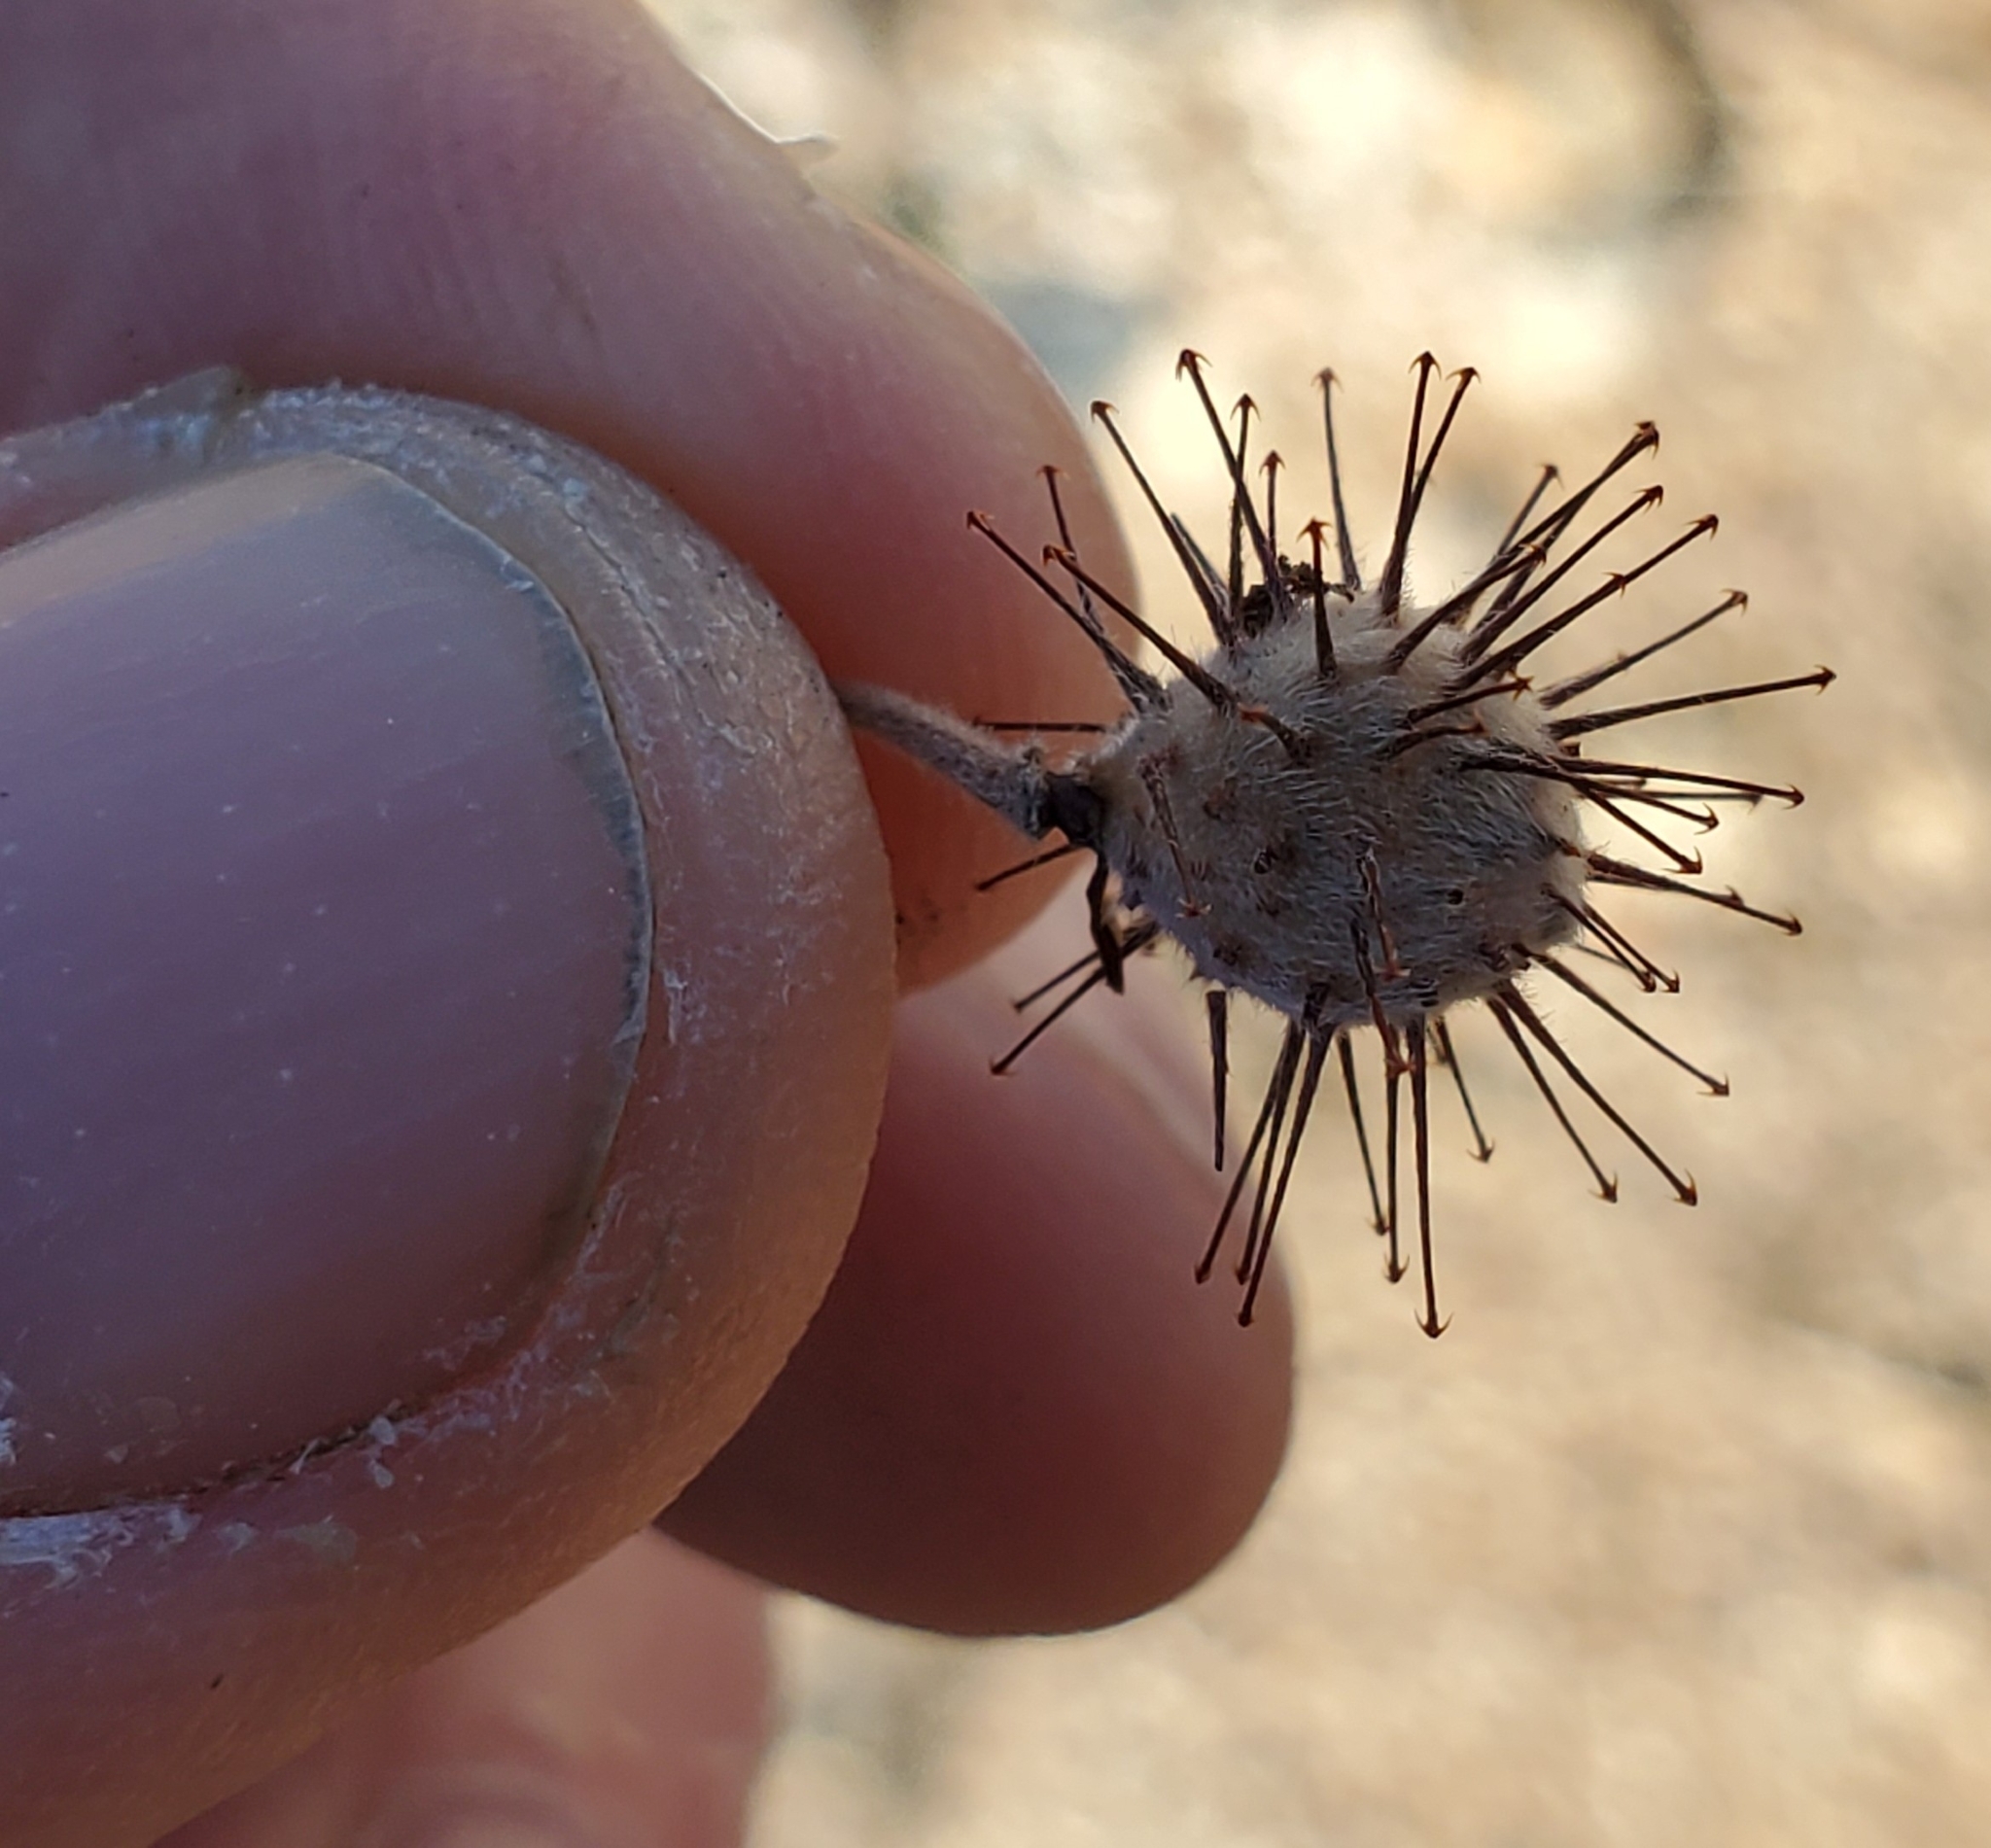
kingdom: Plantae
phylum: Tracheophyta
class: Magnoliopsida
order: Zygophyllales
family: Krameriaceae
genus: Krameria
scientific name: Krameria bicolor
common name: White ratany
